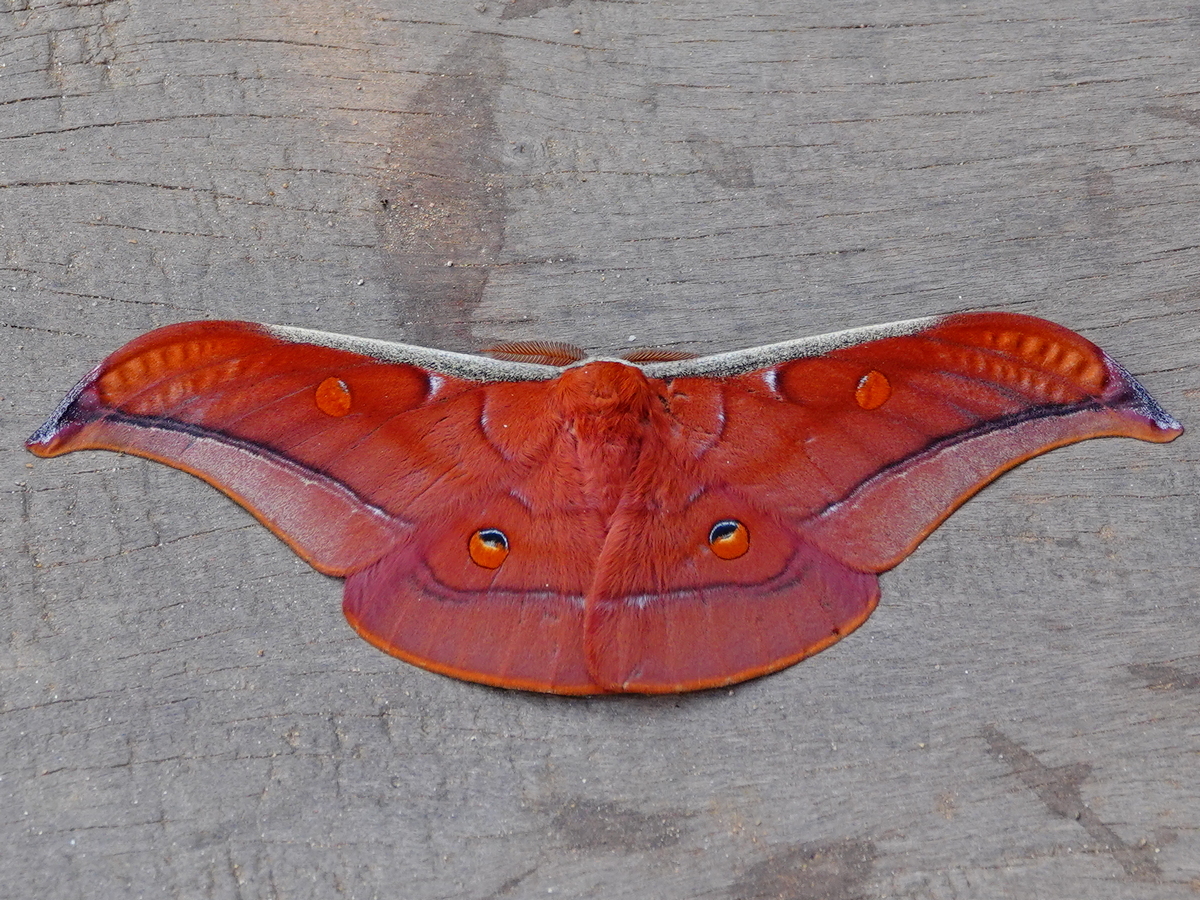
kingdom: Animalia
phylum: Arthropoda
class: Insecta
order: Lepidoptera
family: Saturniidae
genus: Antheraea
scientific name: Antheraea assamensis
